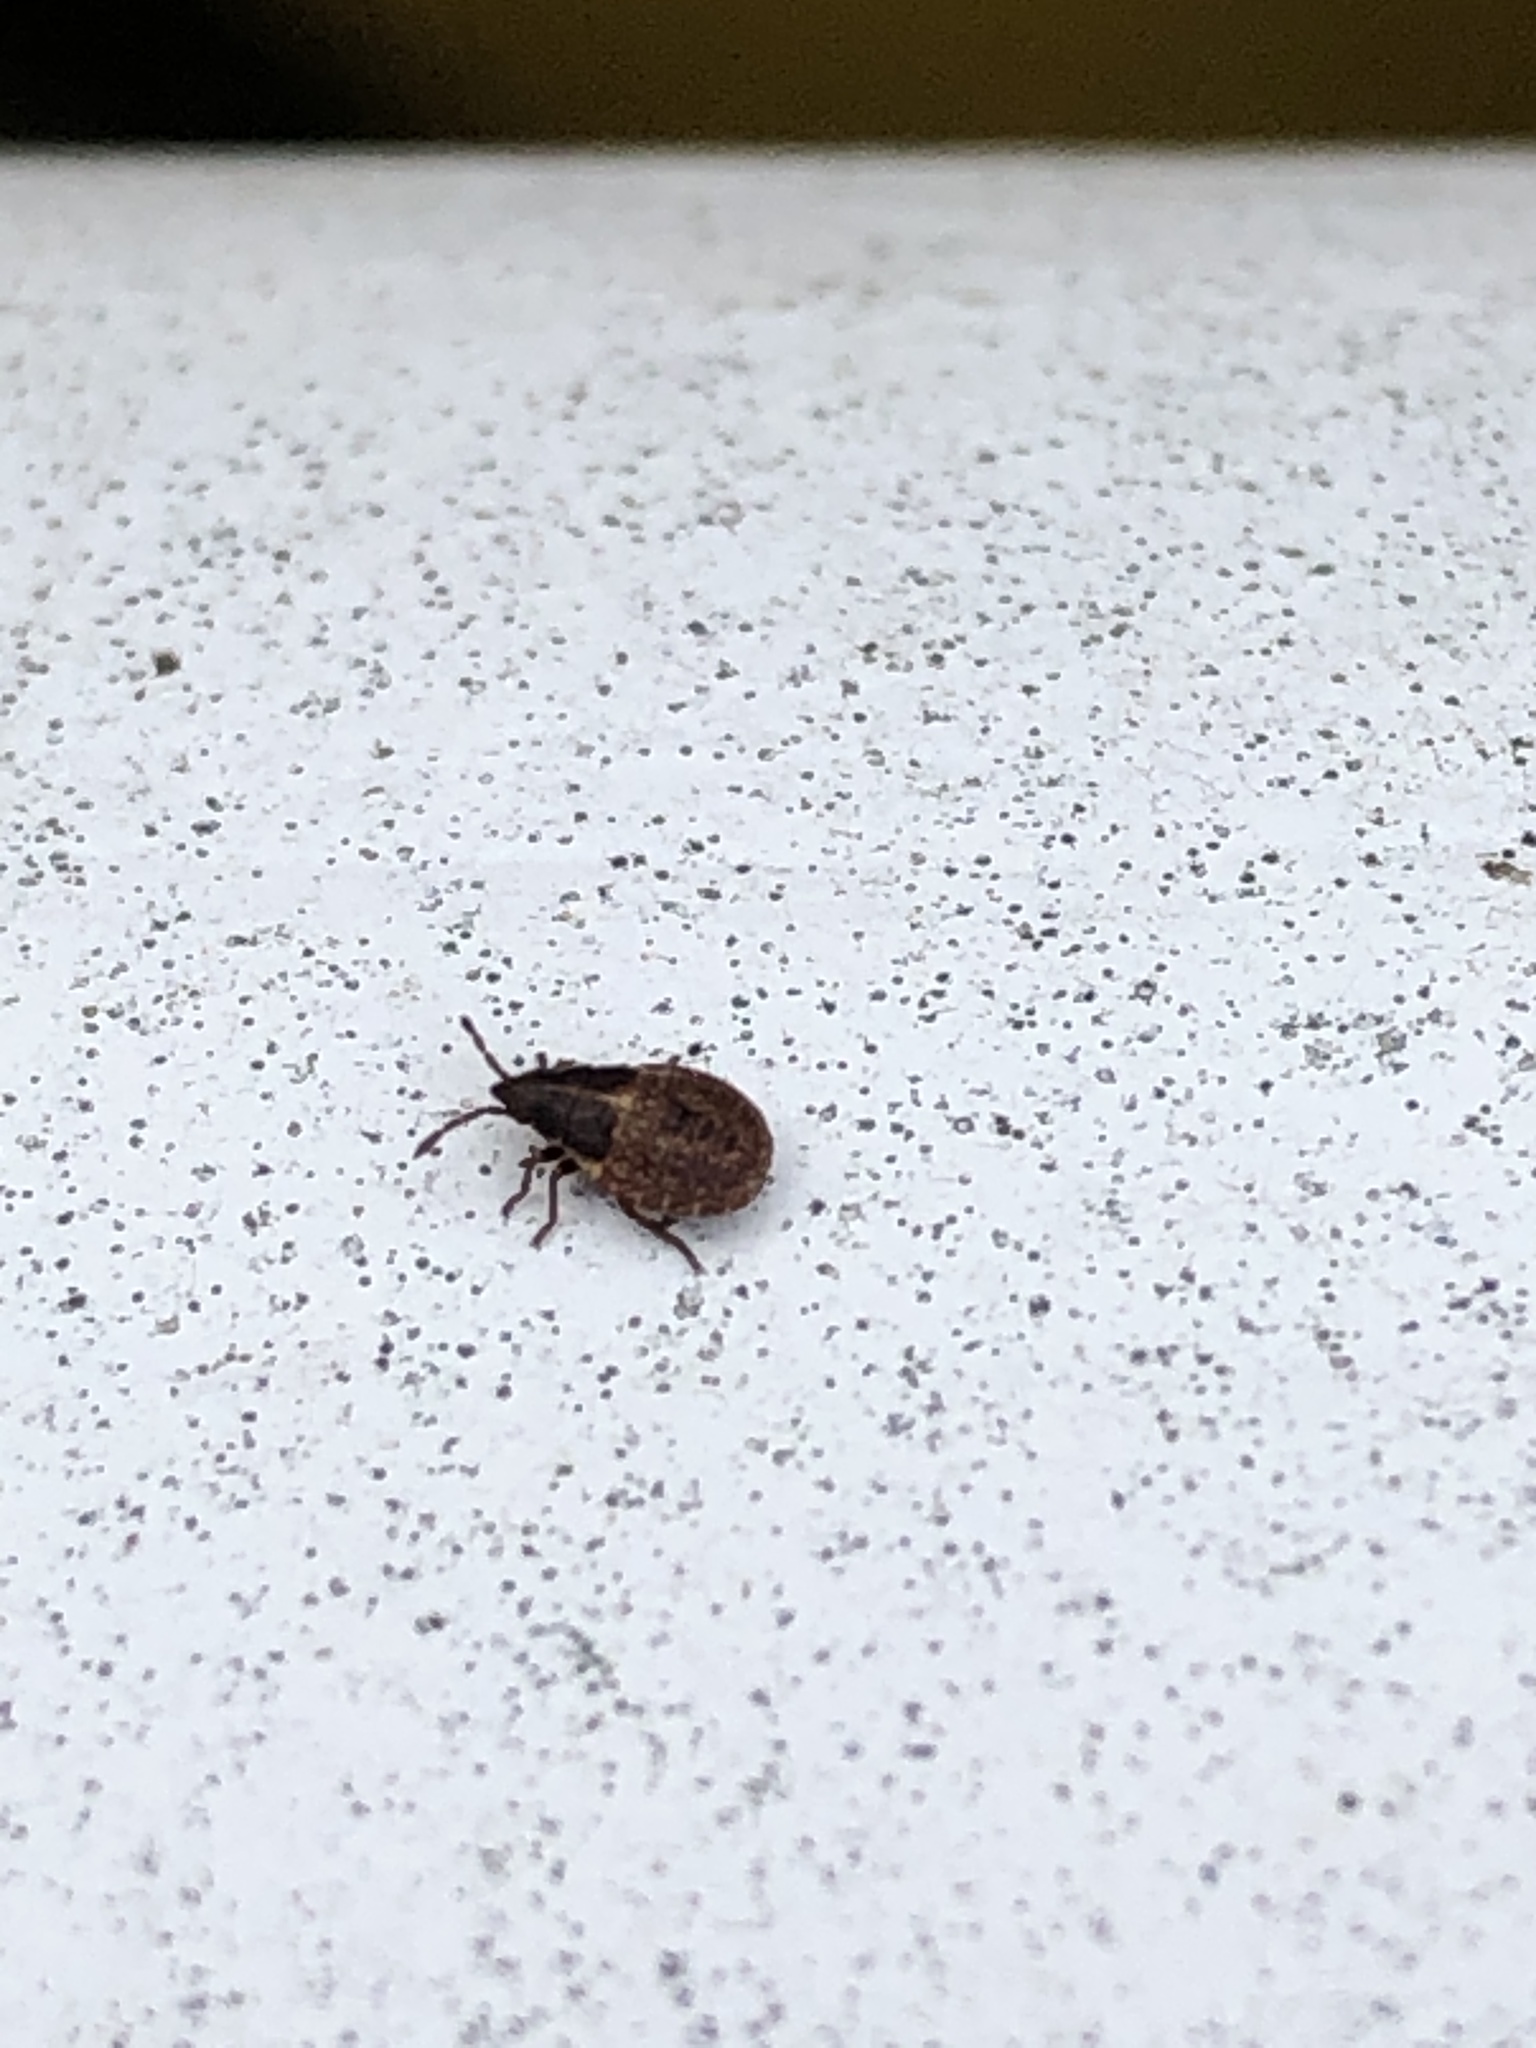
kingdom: Animalia
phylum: Arthropoda
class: Insecta
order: Hemiptera
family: Lygaeidae
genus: Kleidocerys
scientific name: Kleidocerys resedae
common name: Birch catkin bug
